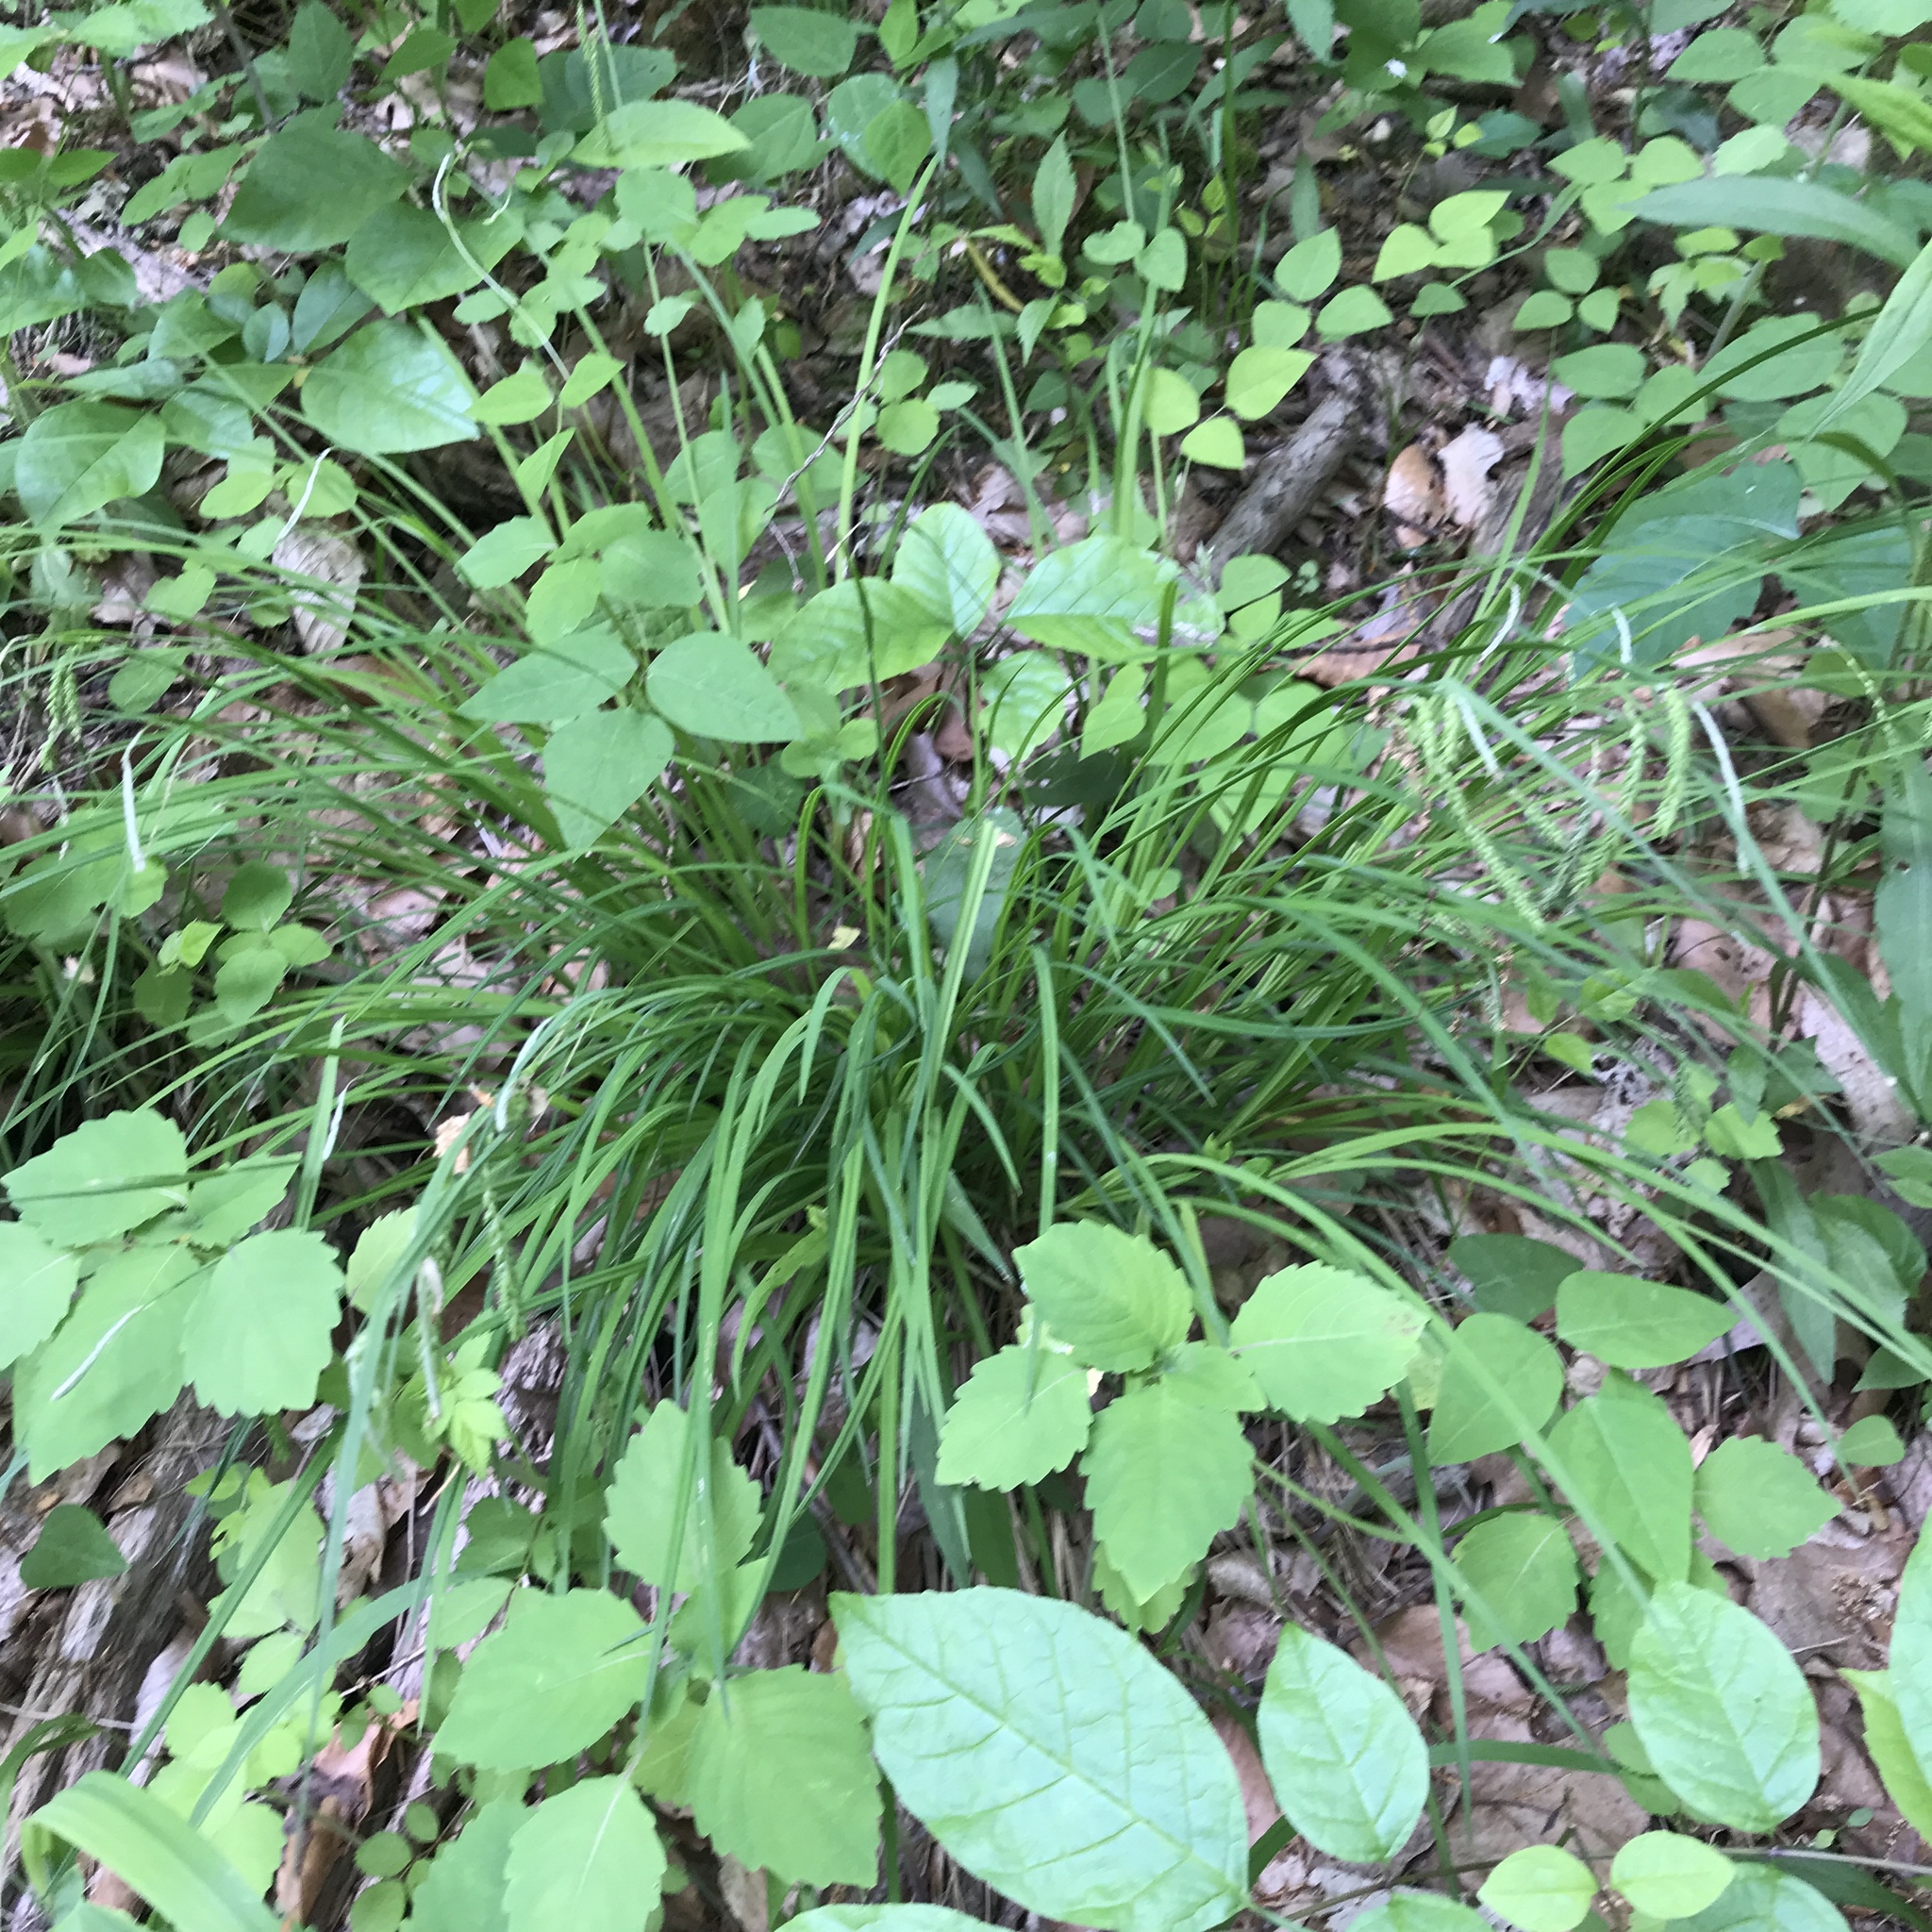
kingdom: Plantae
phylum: Tracheophyta
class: Liliopsida
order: Poales
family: Cyperaceae
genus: Carex
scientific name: Carex prasina
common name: Drooping sedge
